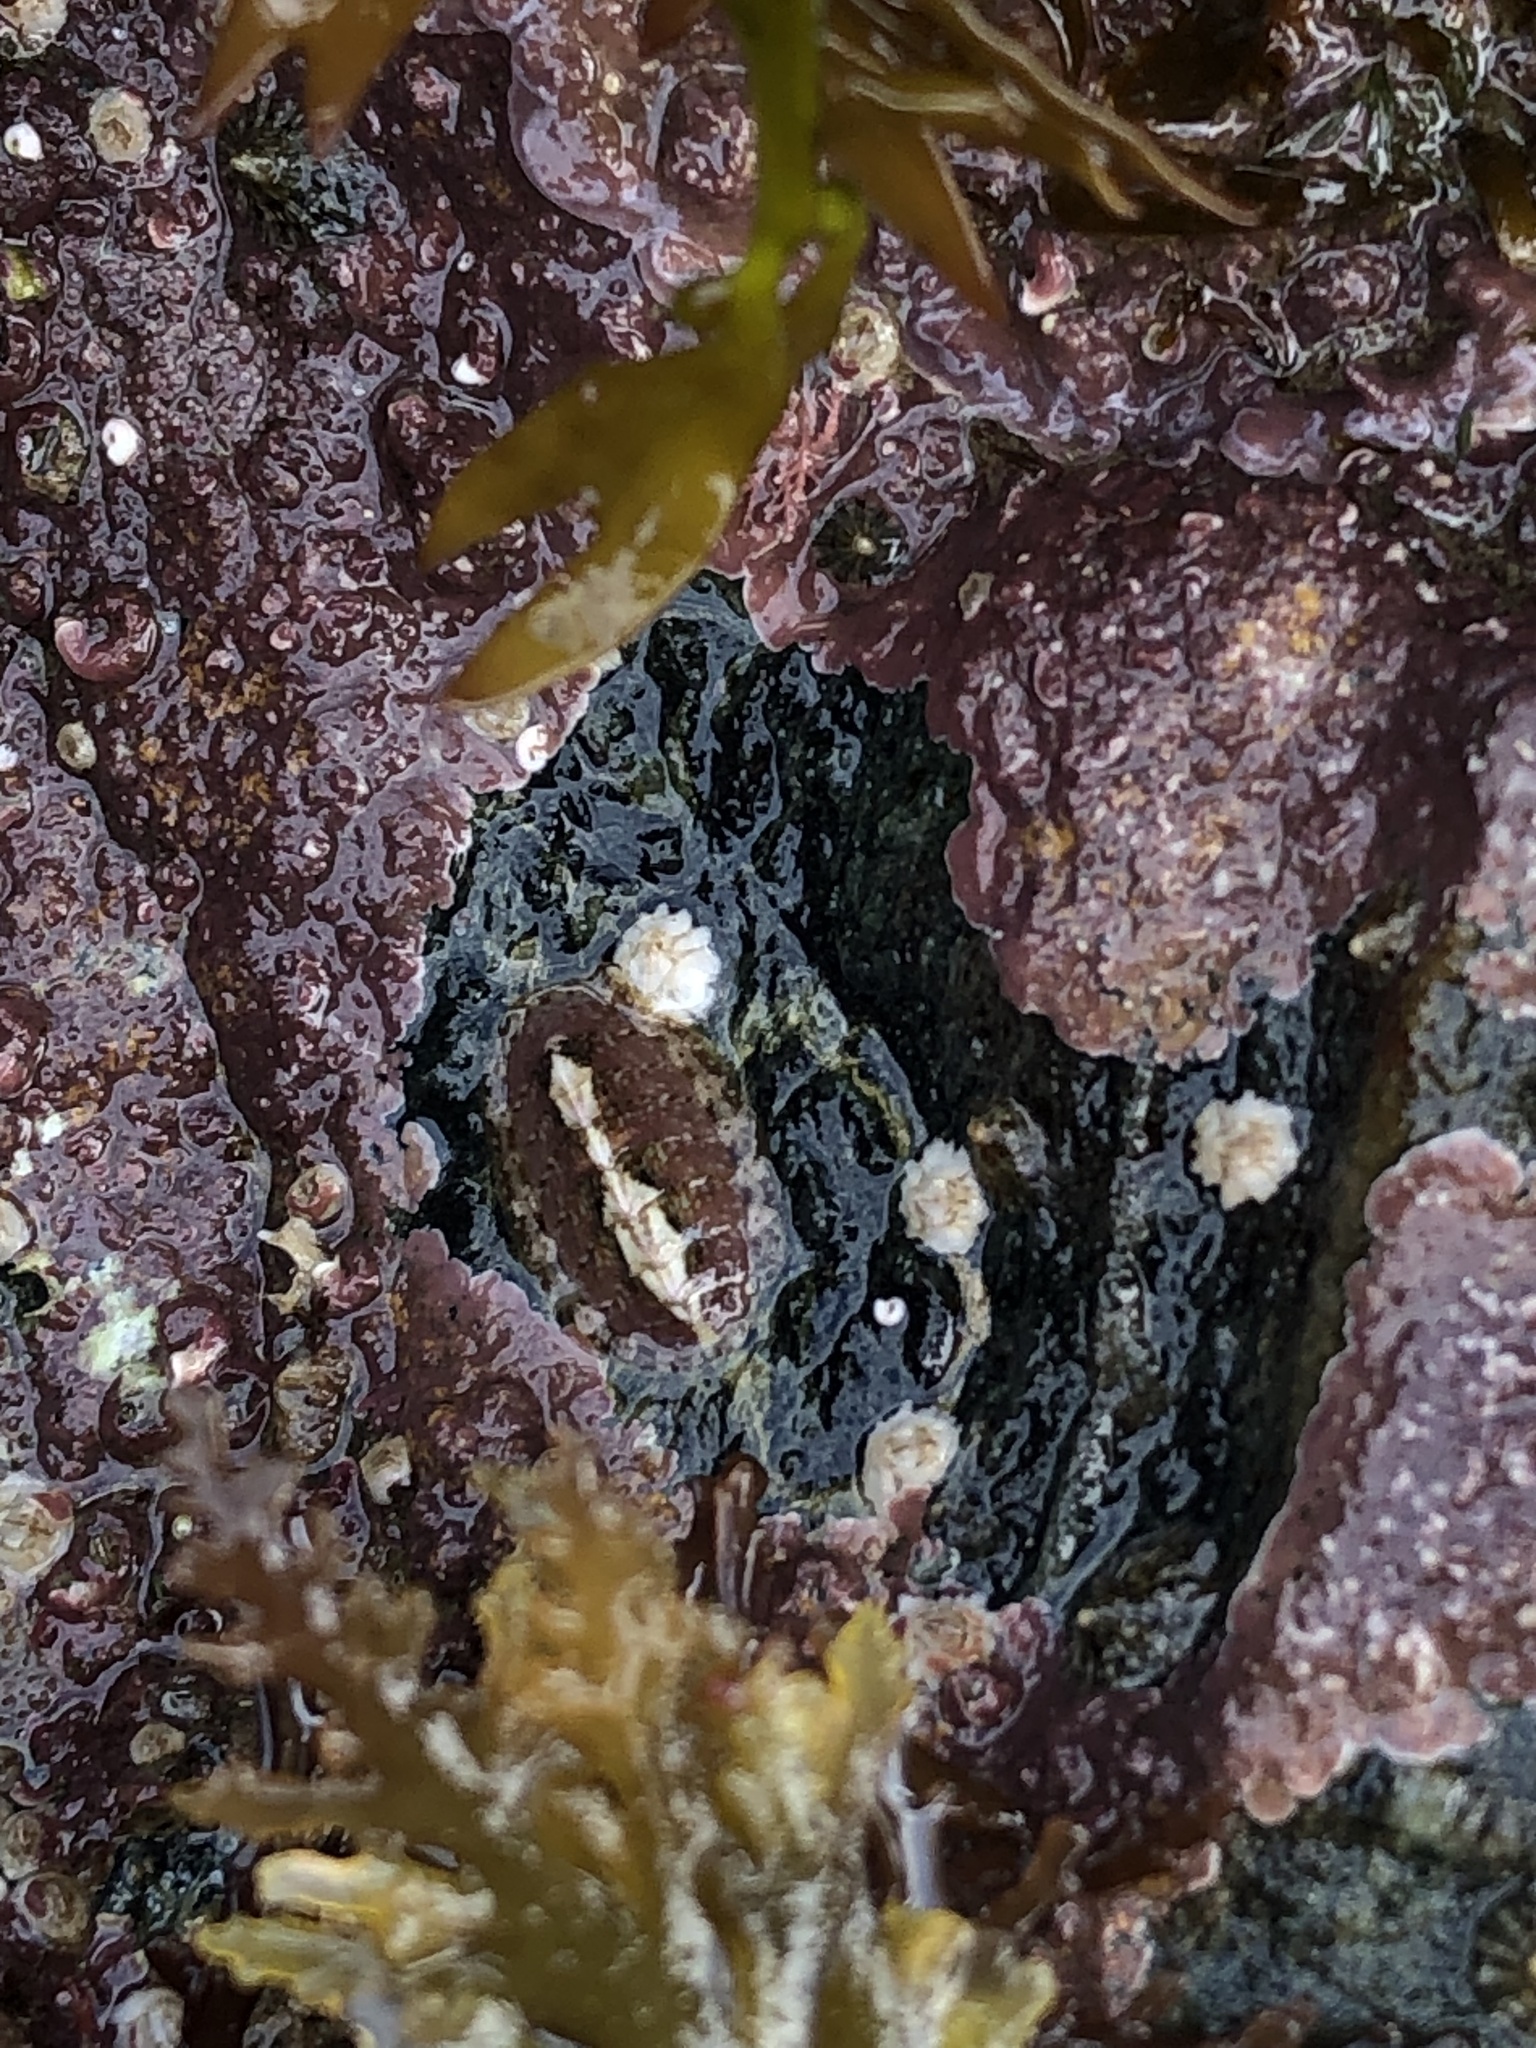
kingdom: Animalia
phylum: Mollusca
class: Polyplacophora
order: Chitonida
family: Tonicellidae
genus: Lepidochitona
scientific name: Lepidochitona cinerea
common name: Cinereous chiton
